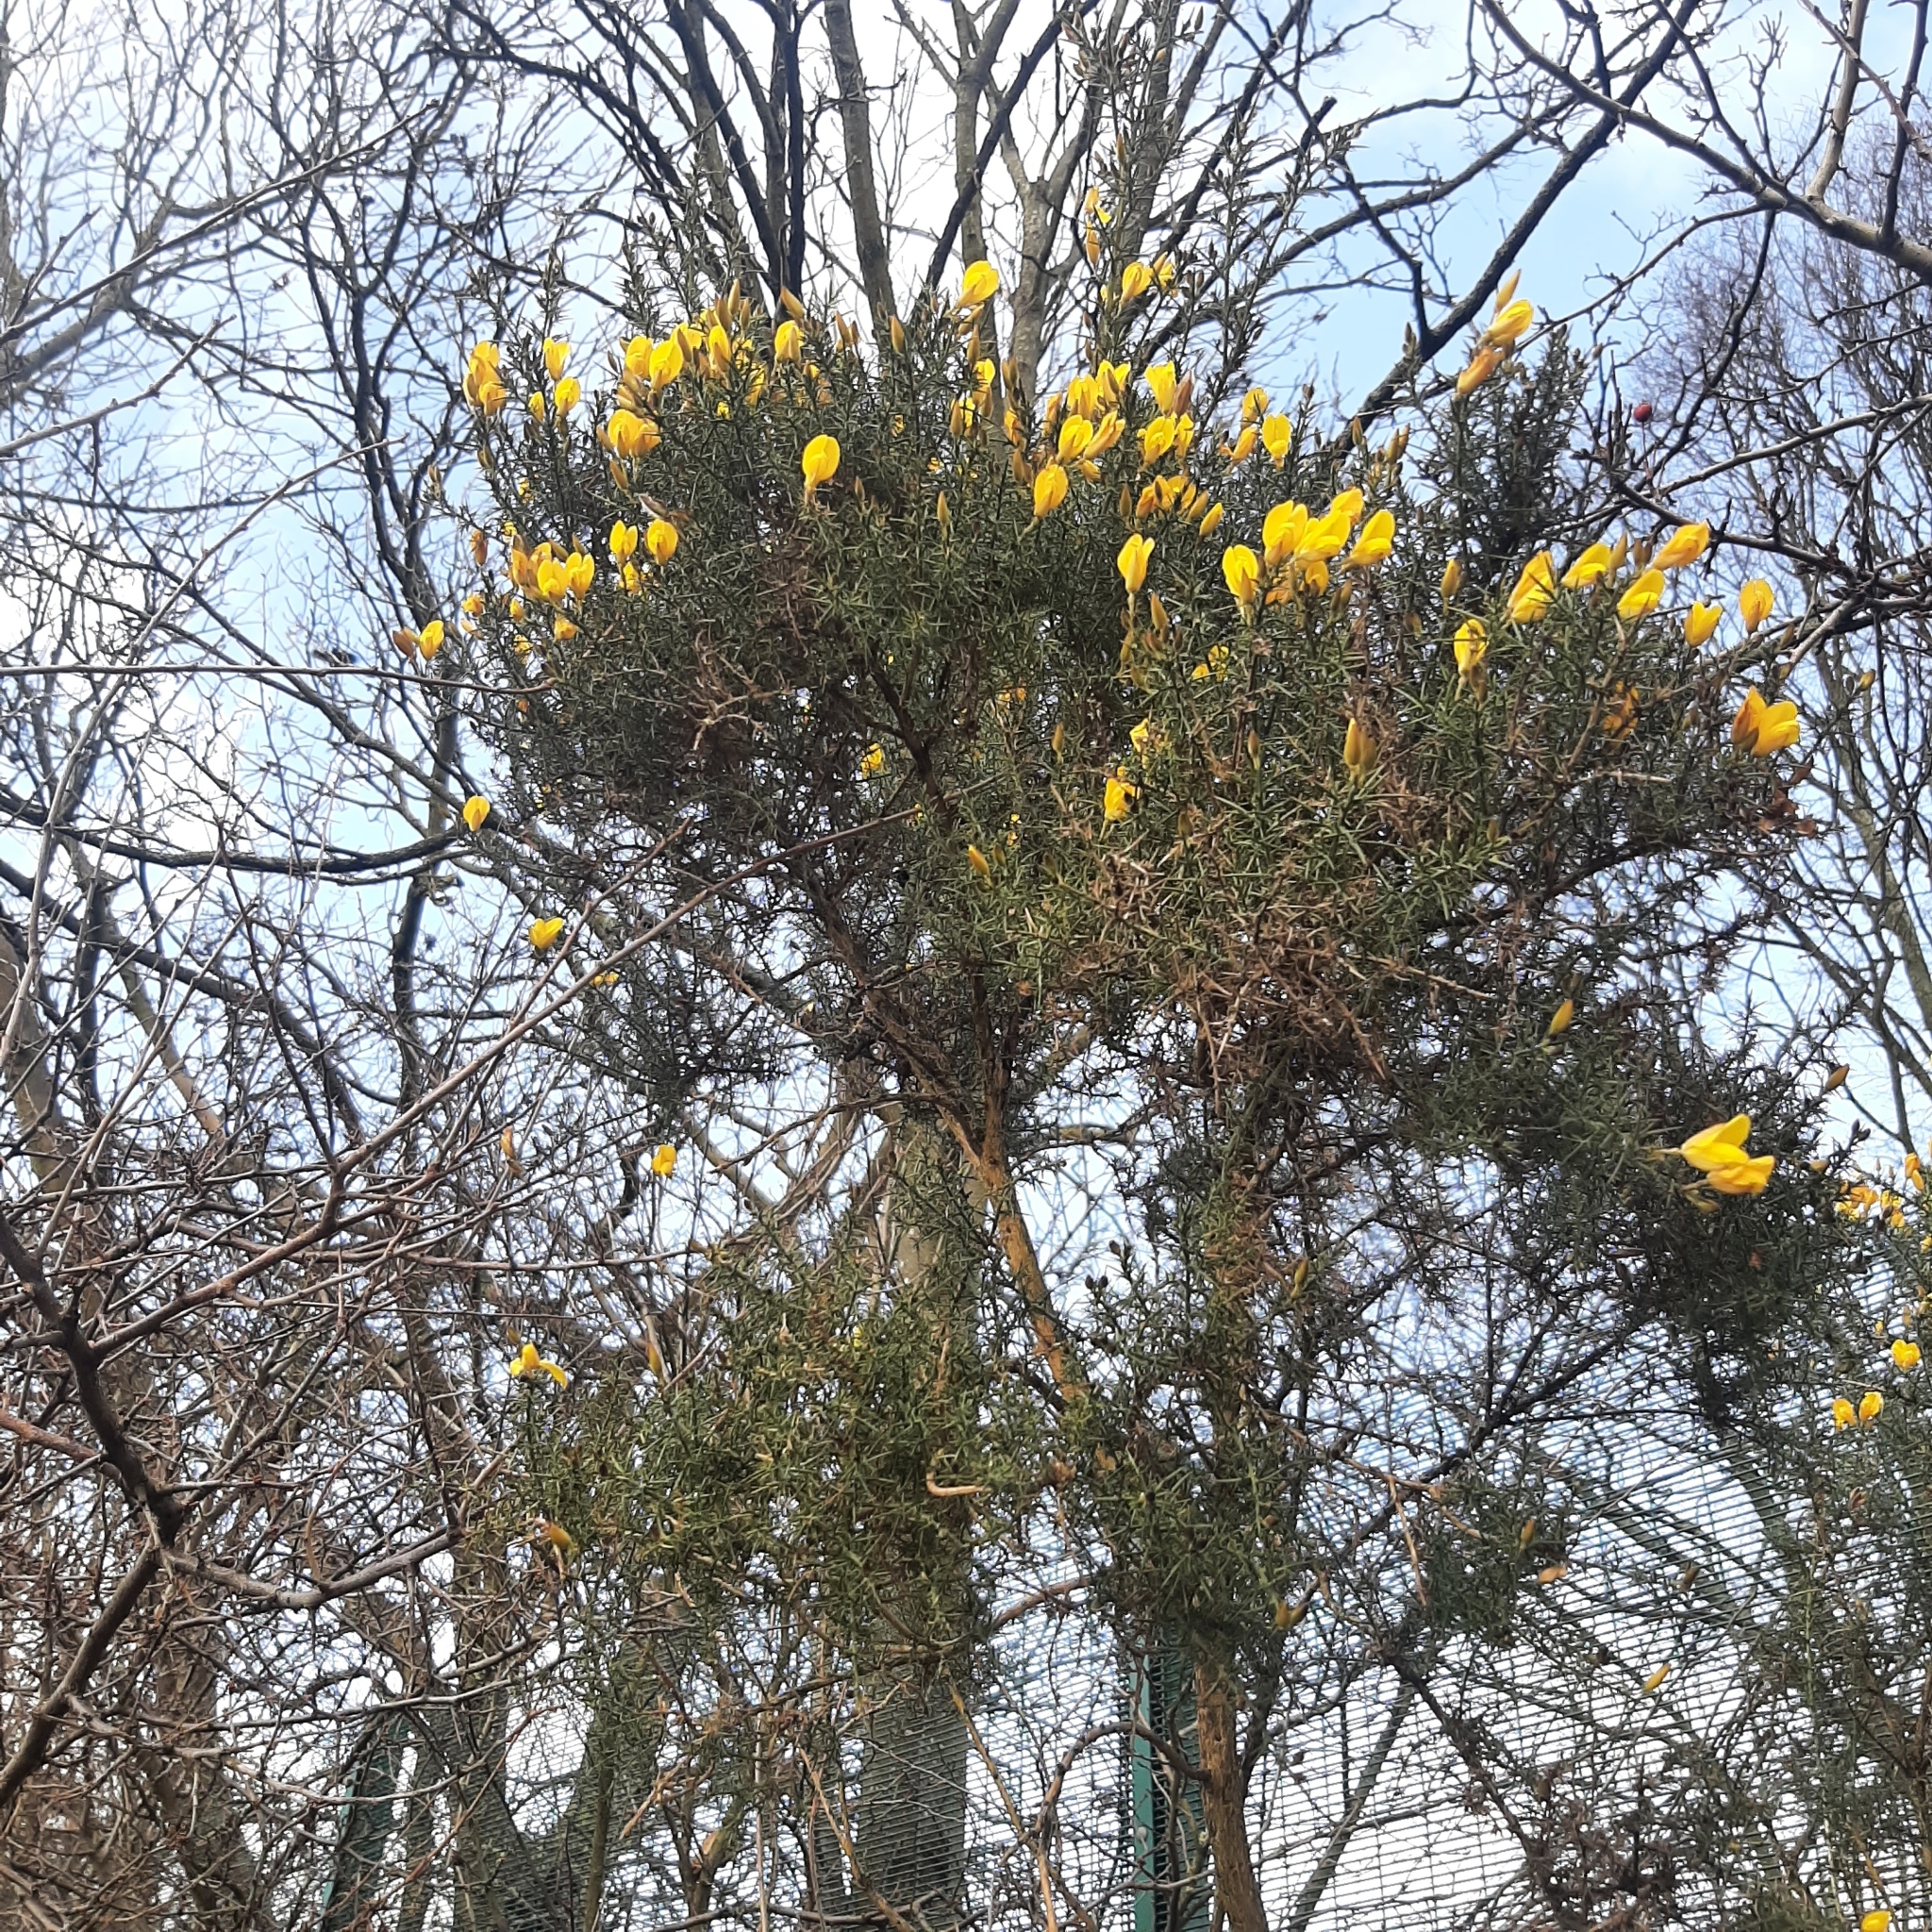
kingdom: Plantae
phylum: Tracheophyta
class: Magnoliopsida
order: Fabales
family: Fabaceae
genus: Ulex
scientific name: Ulex europaeus
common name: Common gorse
